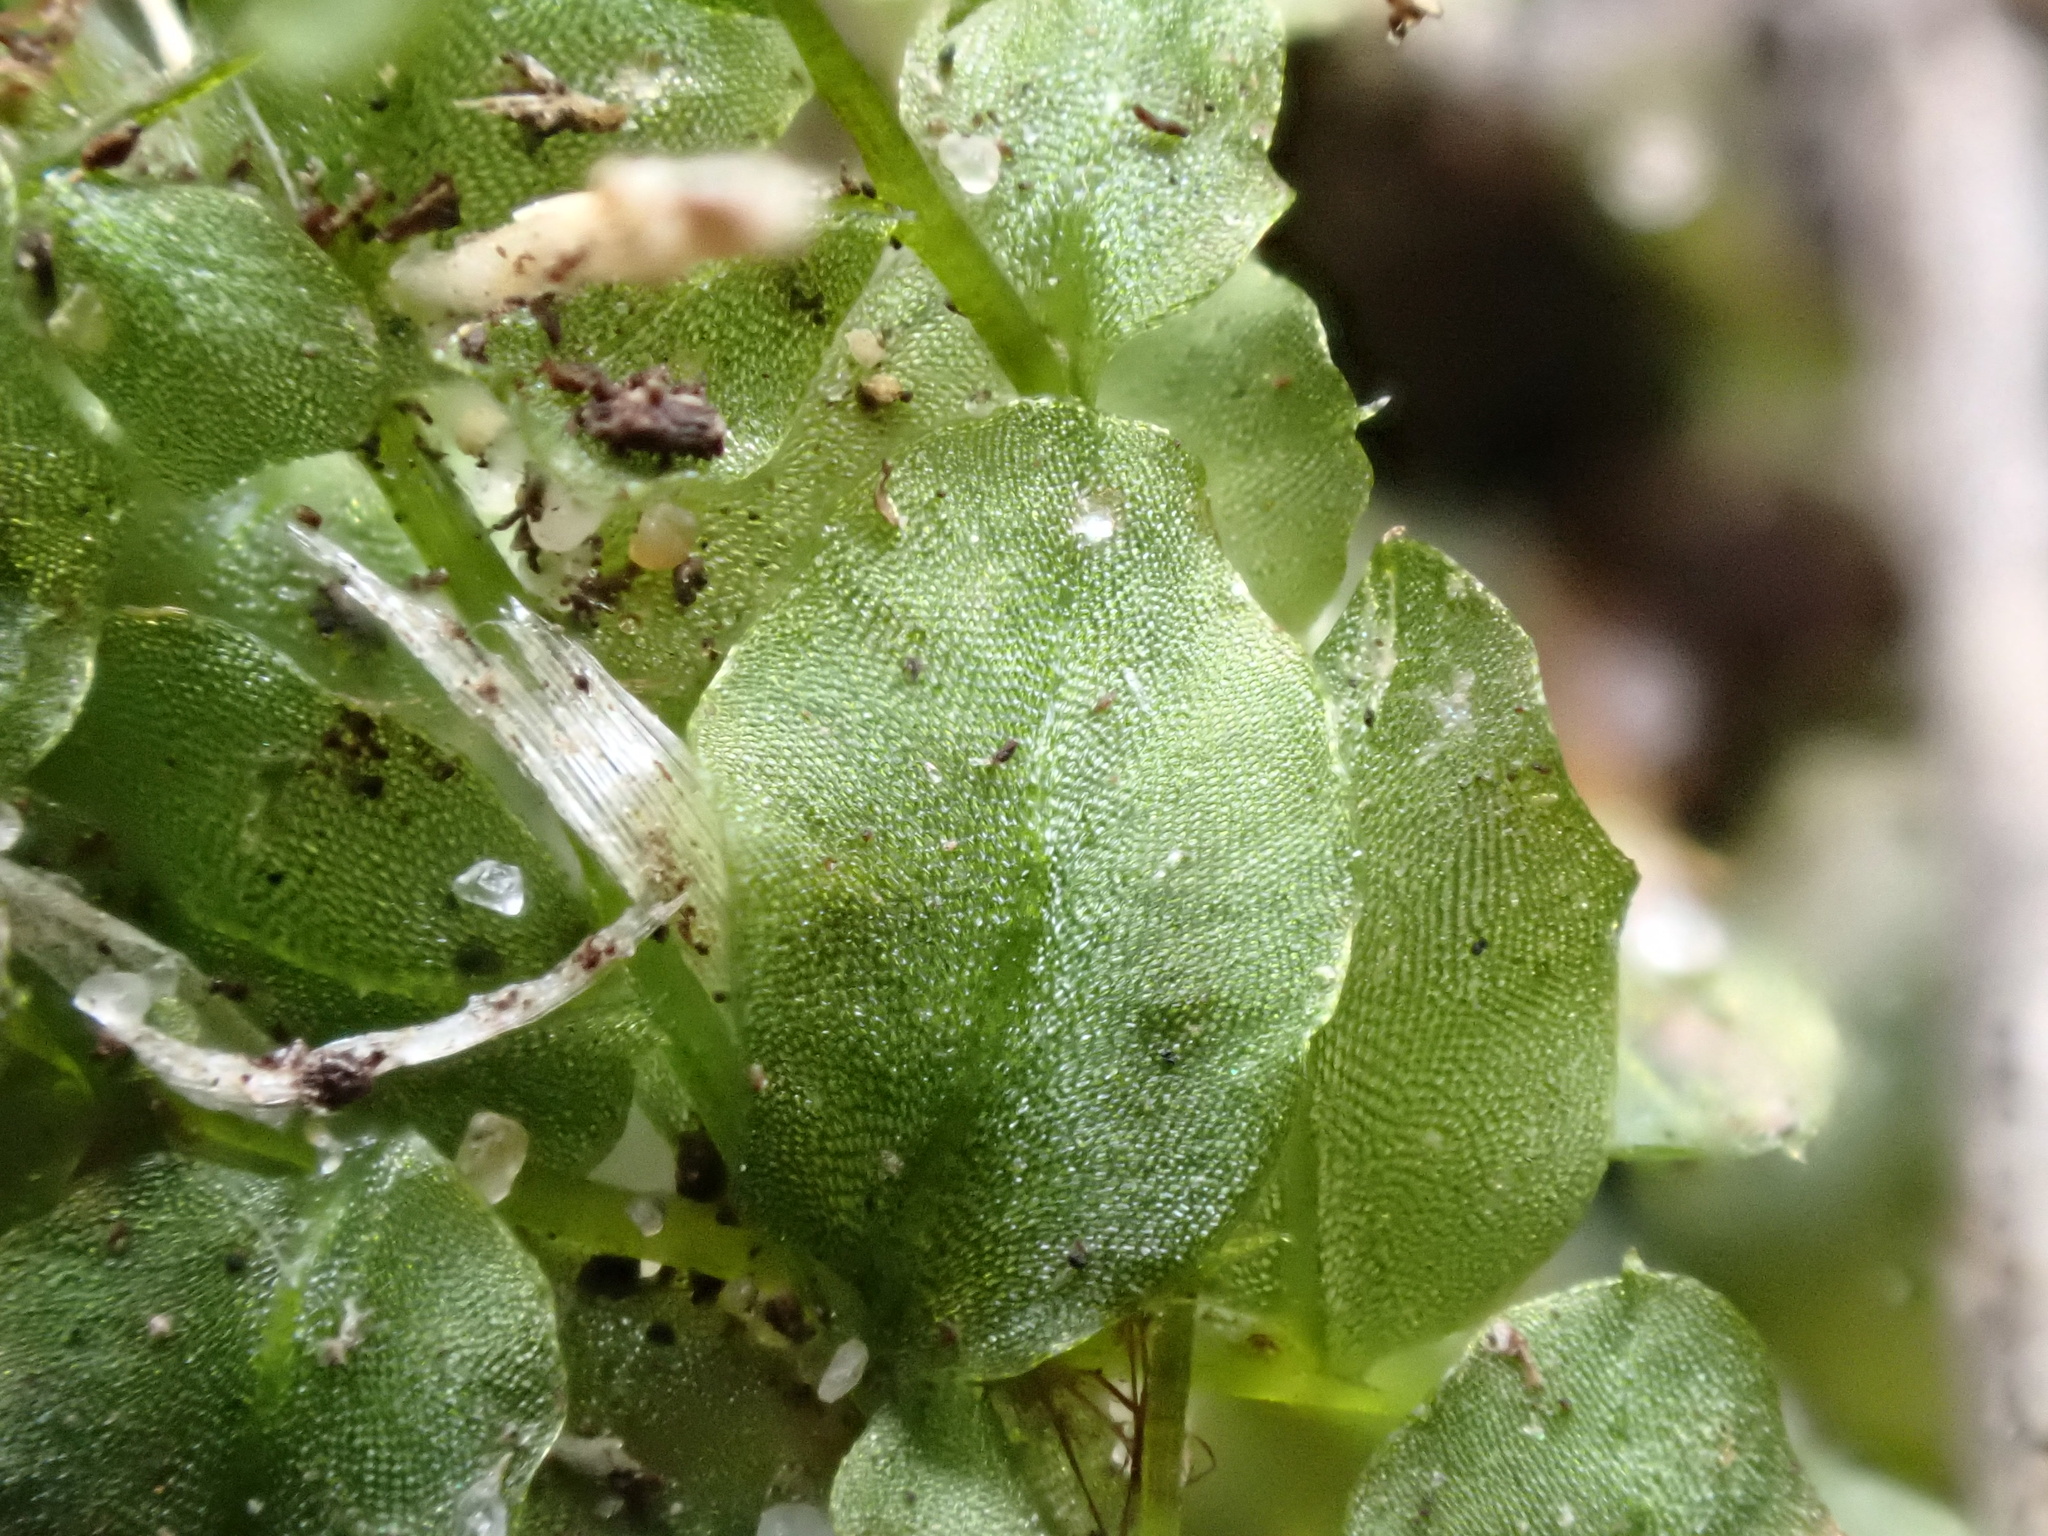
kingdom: Plantae
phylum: Bryophyta
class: Bryopsida
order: Bryales
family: Mniaceae
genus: Plagiomnium
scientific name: Plagiomnium affine
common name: Many-fruited thyme-moss
